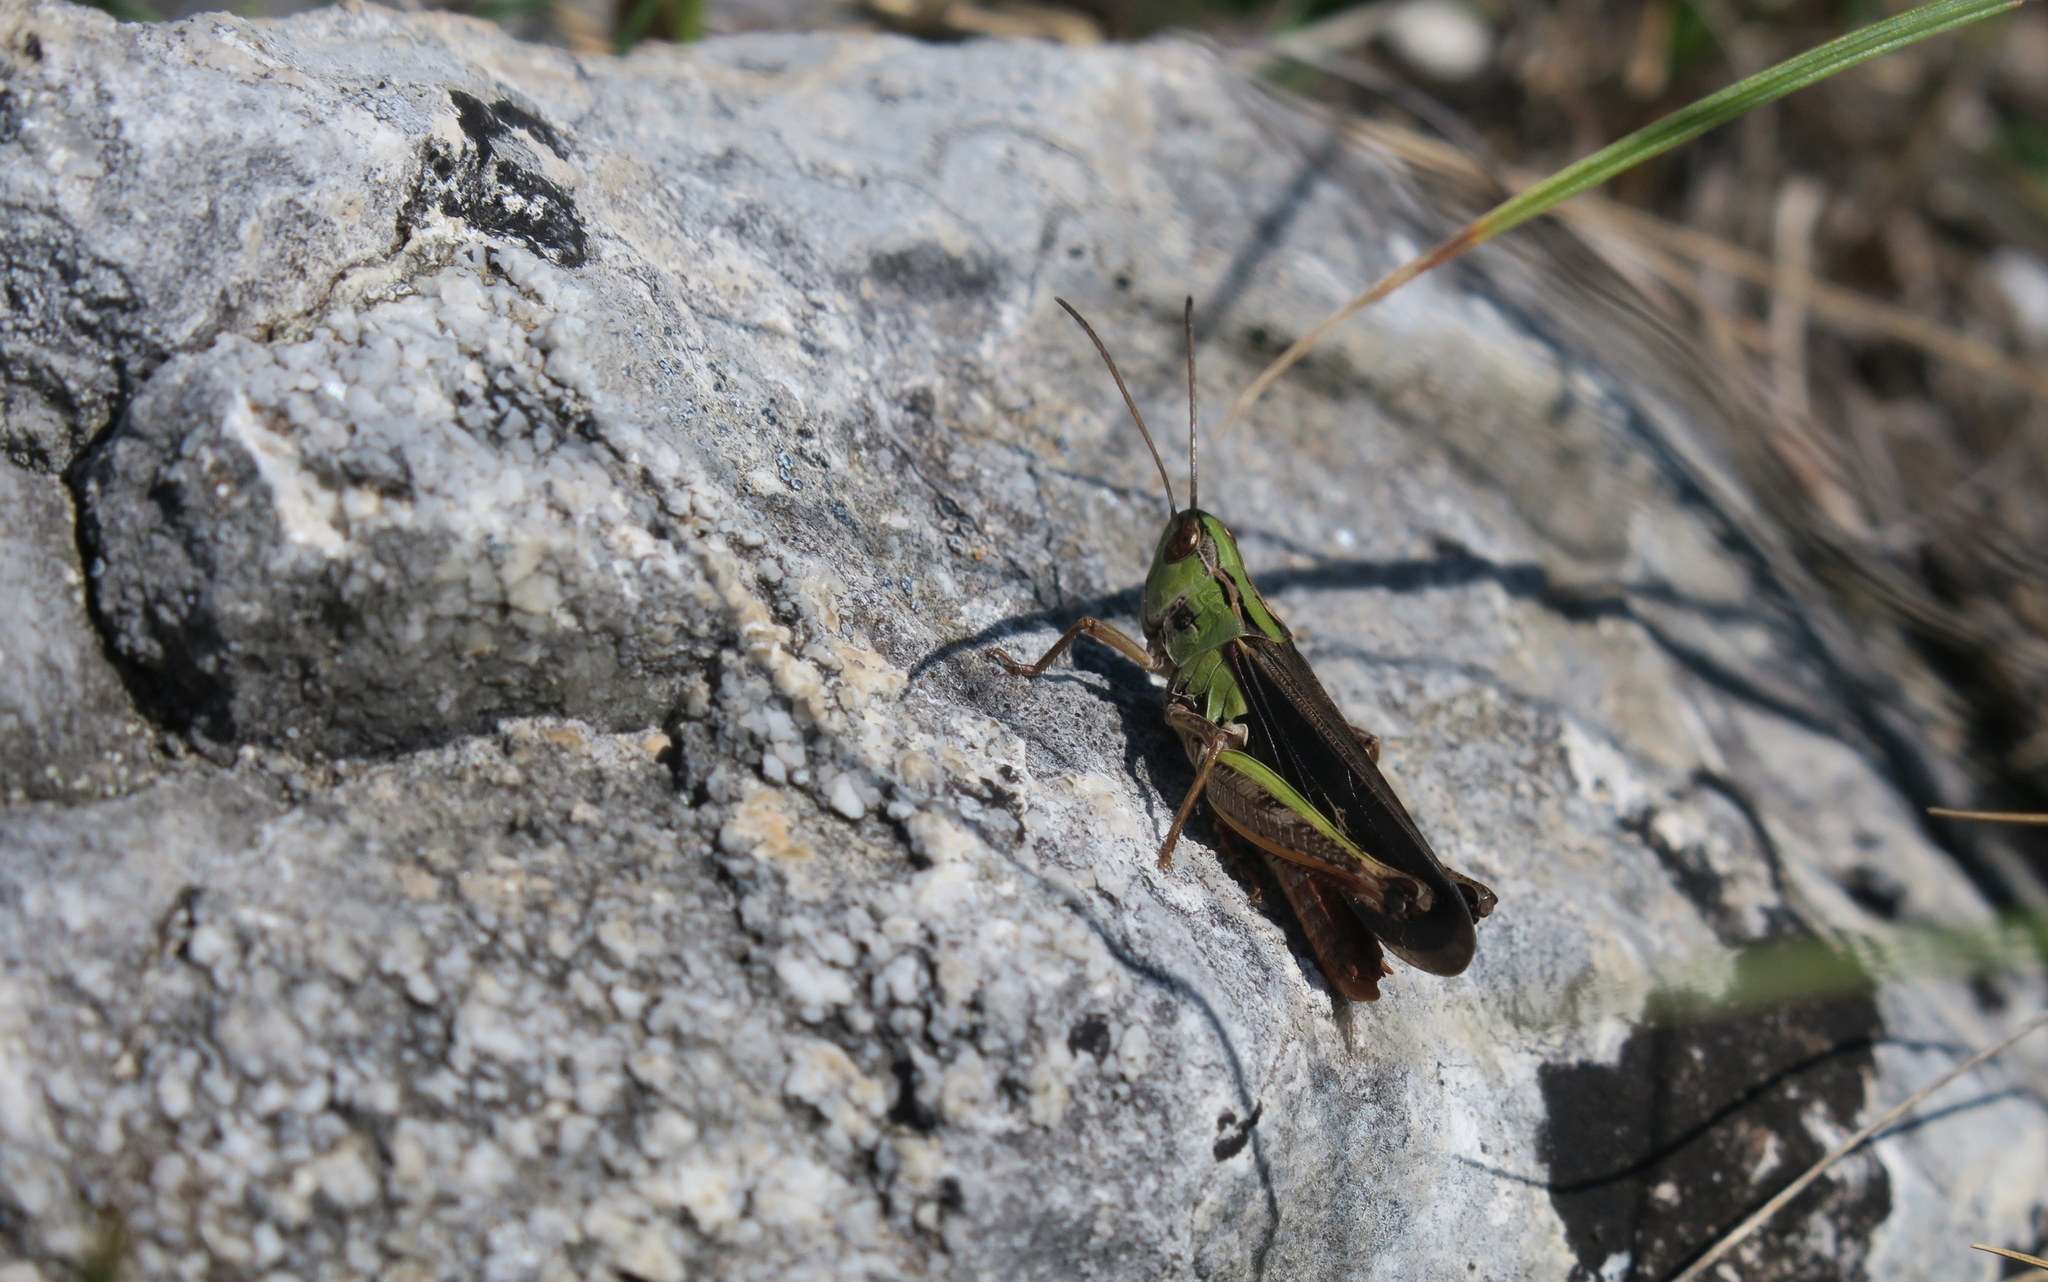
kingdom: Animalia
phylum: Arthropoda
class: Insecta
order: Orthoptera
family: Acrididae
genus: Stenobothrus
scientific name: Stenobothrus rubicundulus
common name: Wing-buzzing grasshopper
